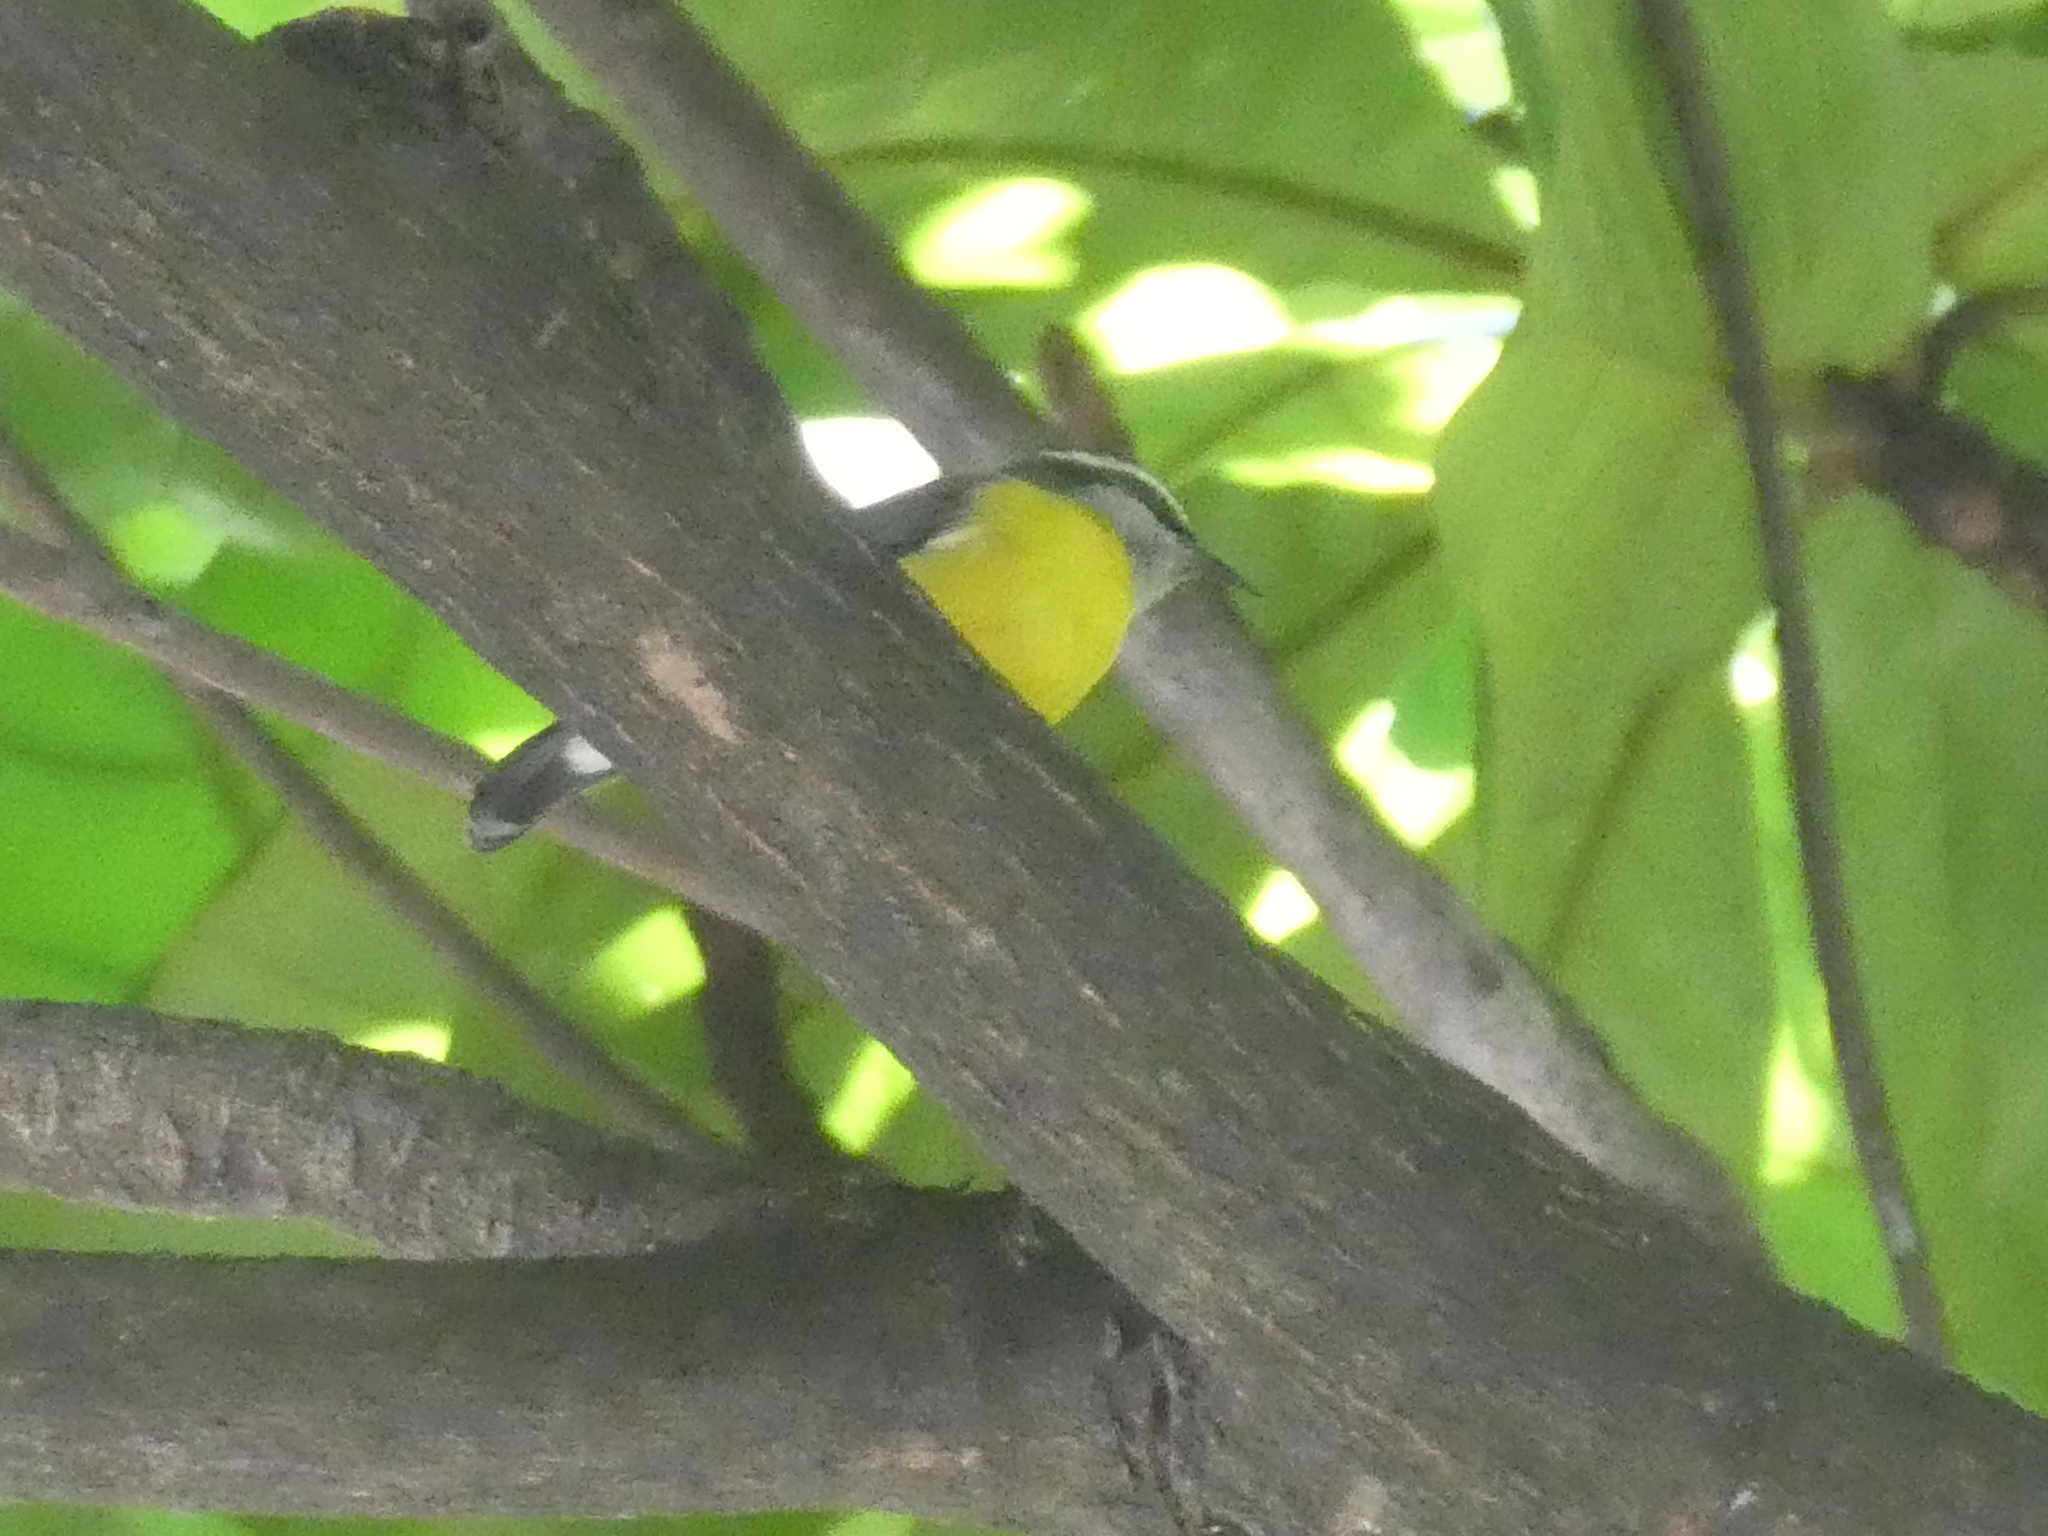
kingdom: Animalia
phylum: Chordata
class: Aves
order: Passeriformes
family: Thraupidae
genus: Coereba
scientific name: Coereba flaveola
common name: Bananaquit
